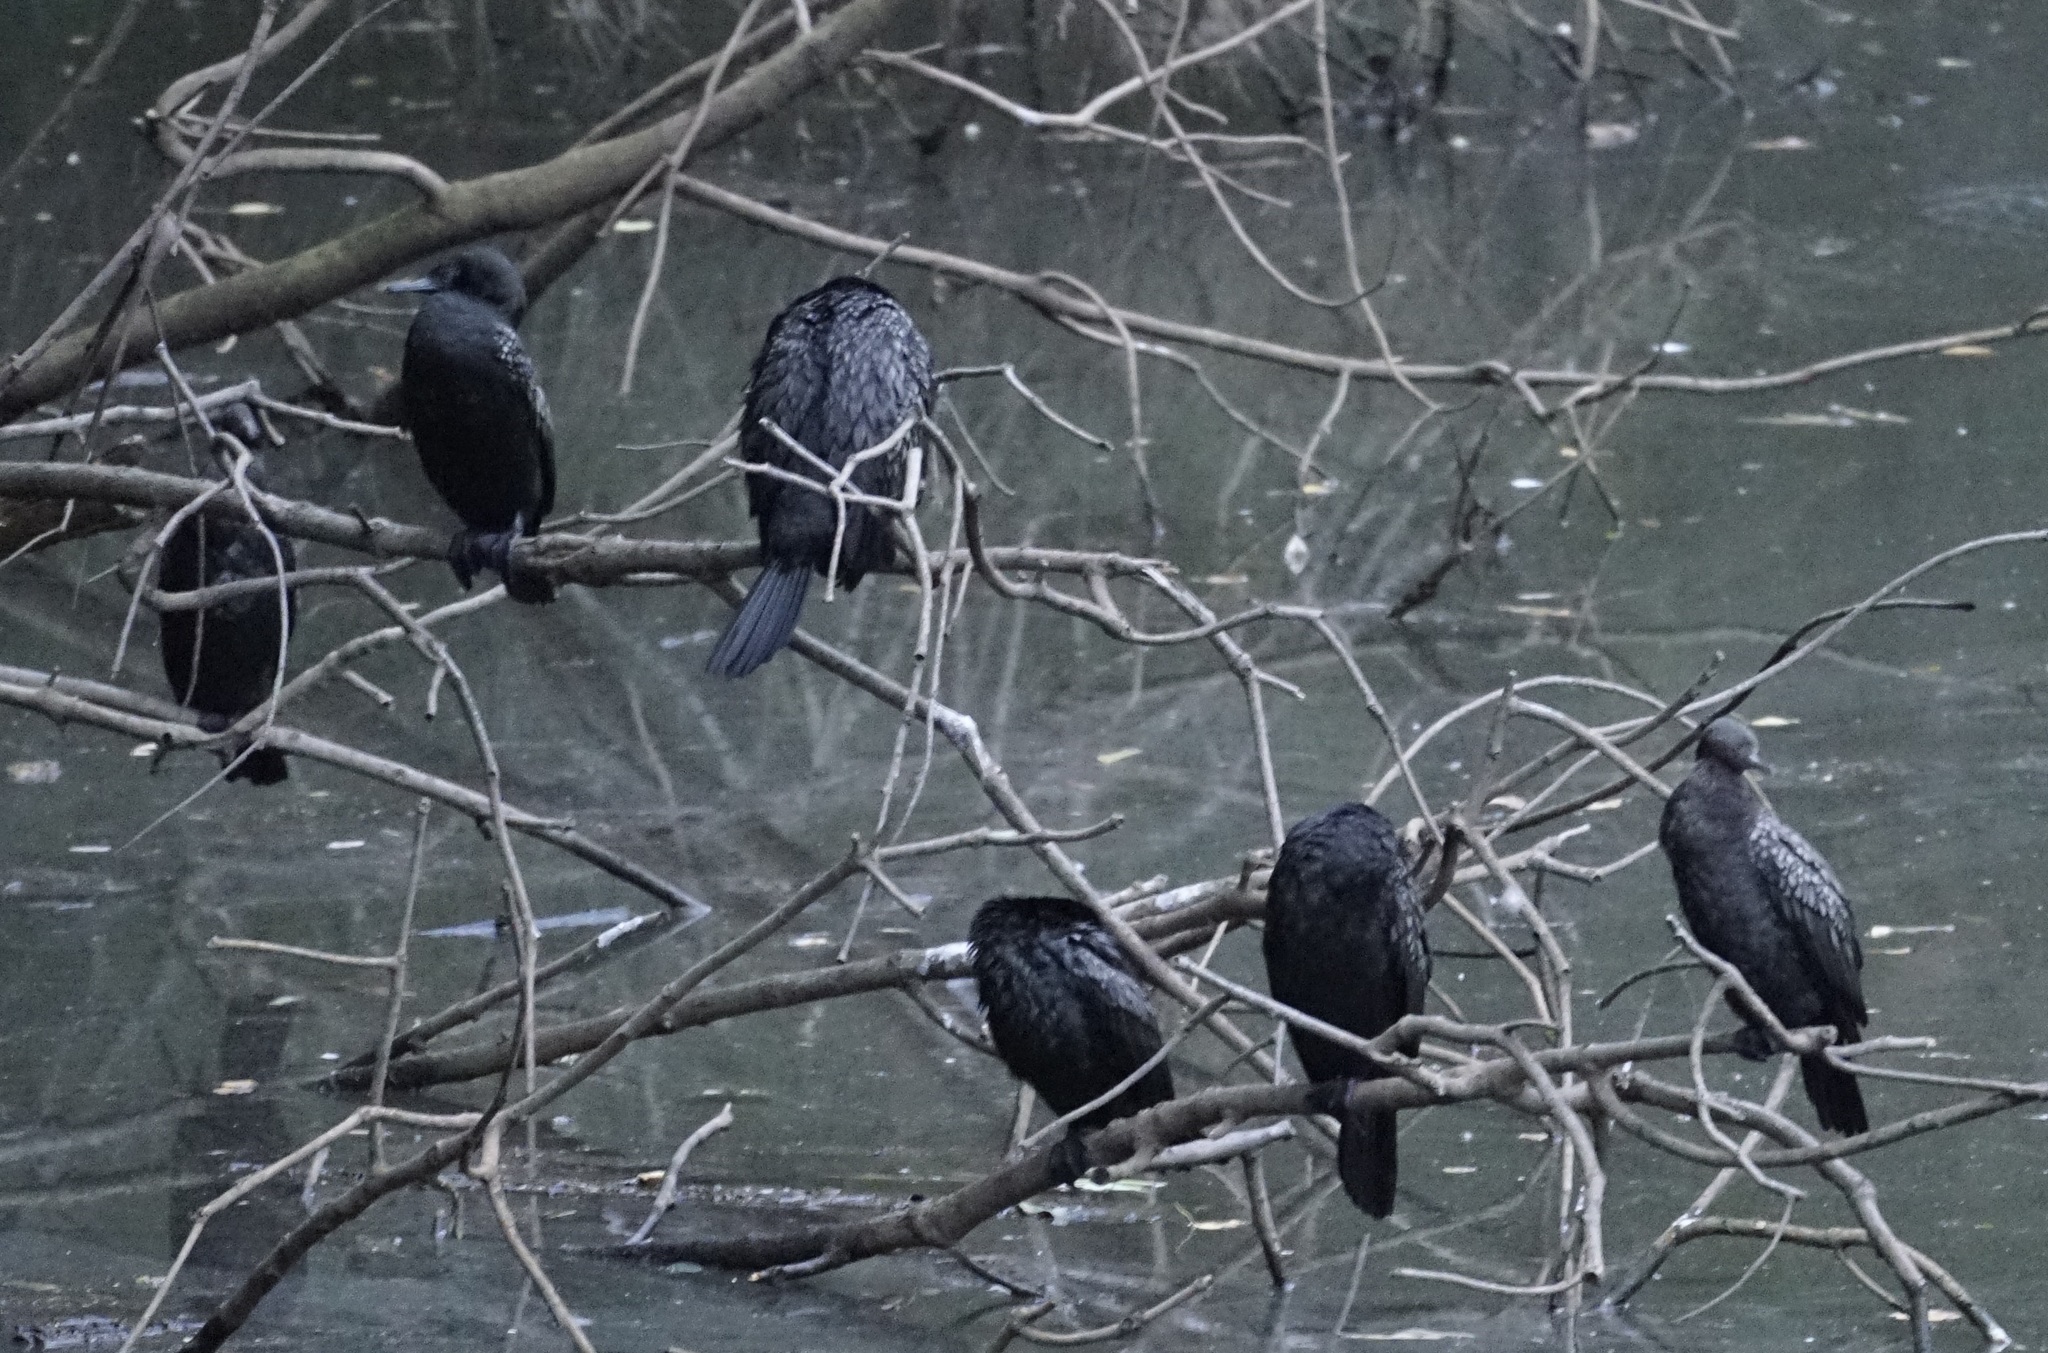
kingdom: Animalia
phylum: Chordata
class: Aves
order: Suliformes
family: Phalacrocoracidae
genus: Phalacrocorax
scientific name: Phalacrocorax sulcirostris
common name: Little black cormorant
